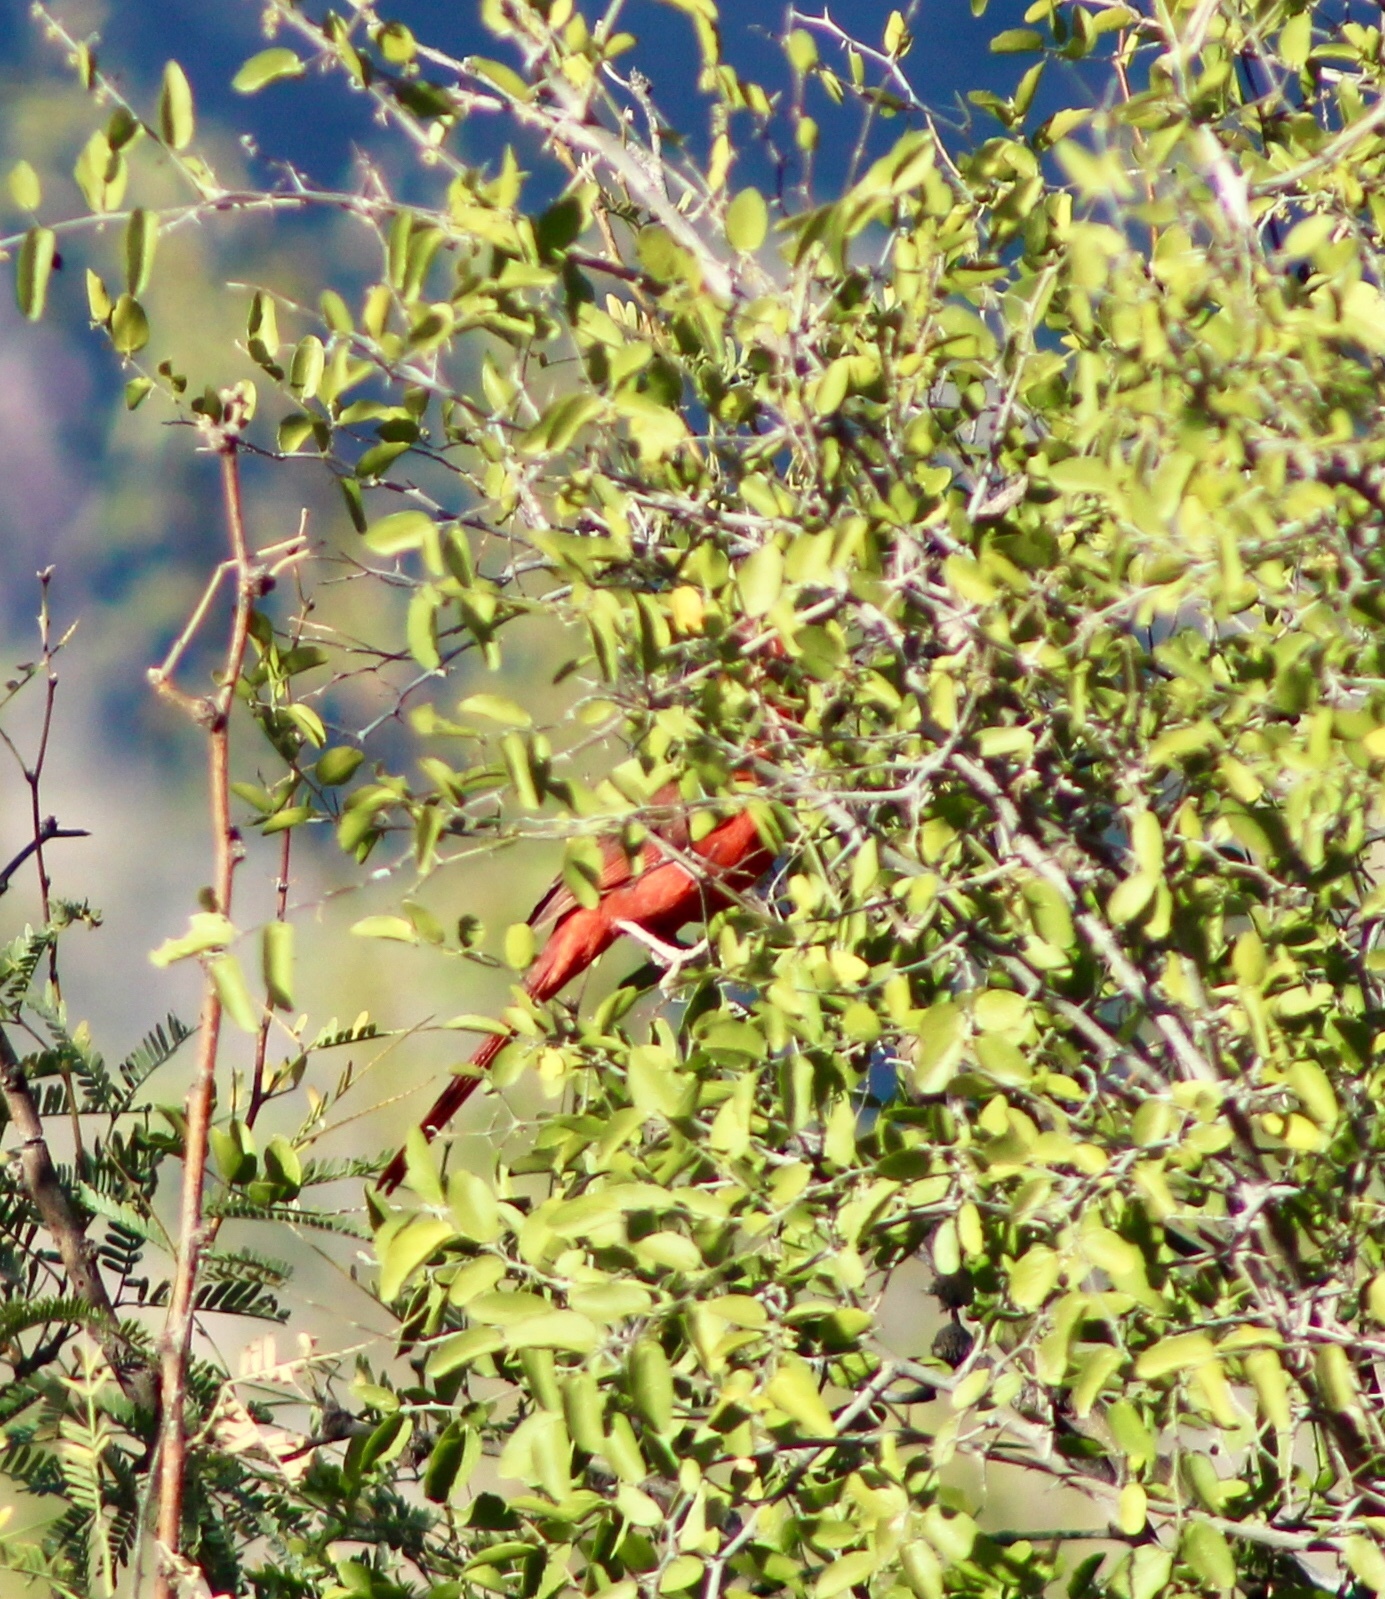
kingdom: Animalia
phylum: Chordata
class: Aves
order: Passeriformes
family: Cardinalidae
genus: Cardinalis
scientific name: Cardinalis cardinalis
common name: Northern cardinal
